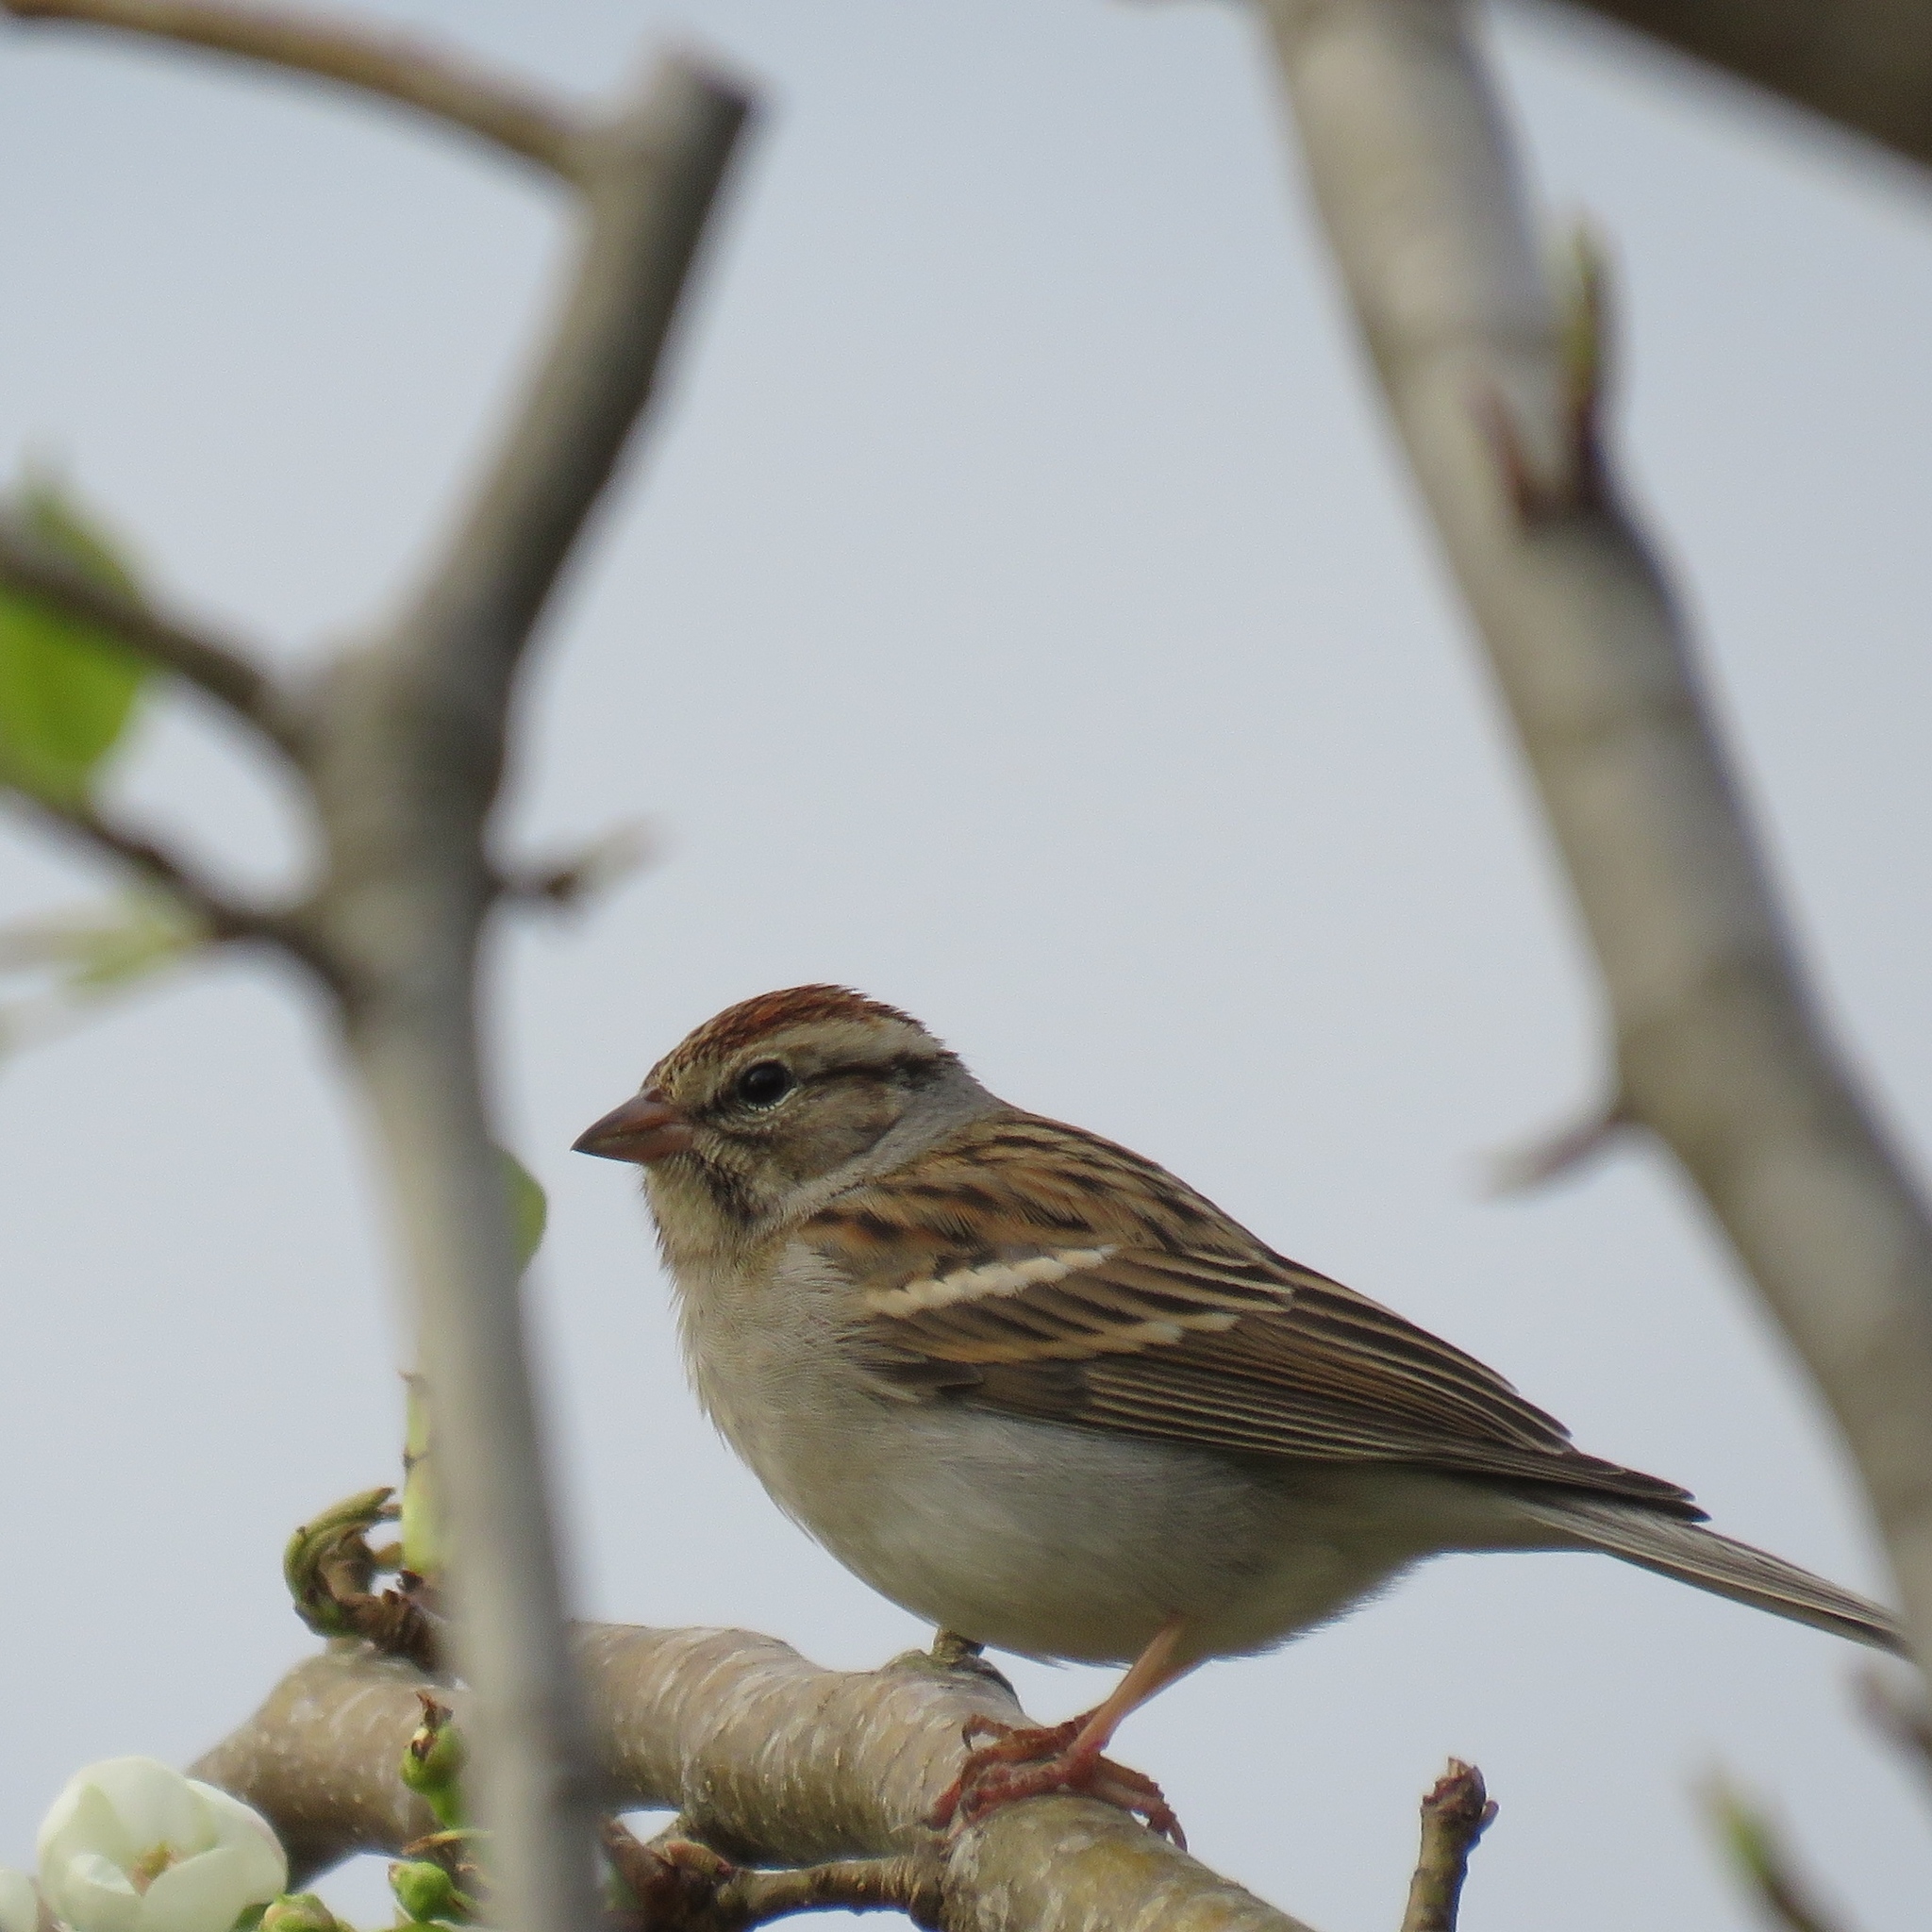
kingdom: Animalia
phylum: Chordata
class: Aves
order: Passeriformes
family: Passerellidae
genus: Spizella
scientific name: Spizella passerina
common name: Chipping sparrow
